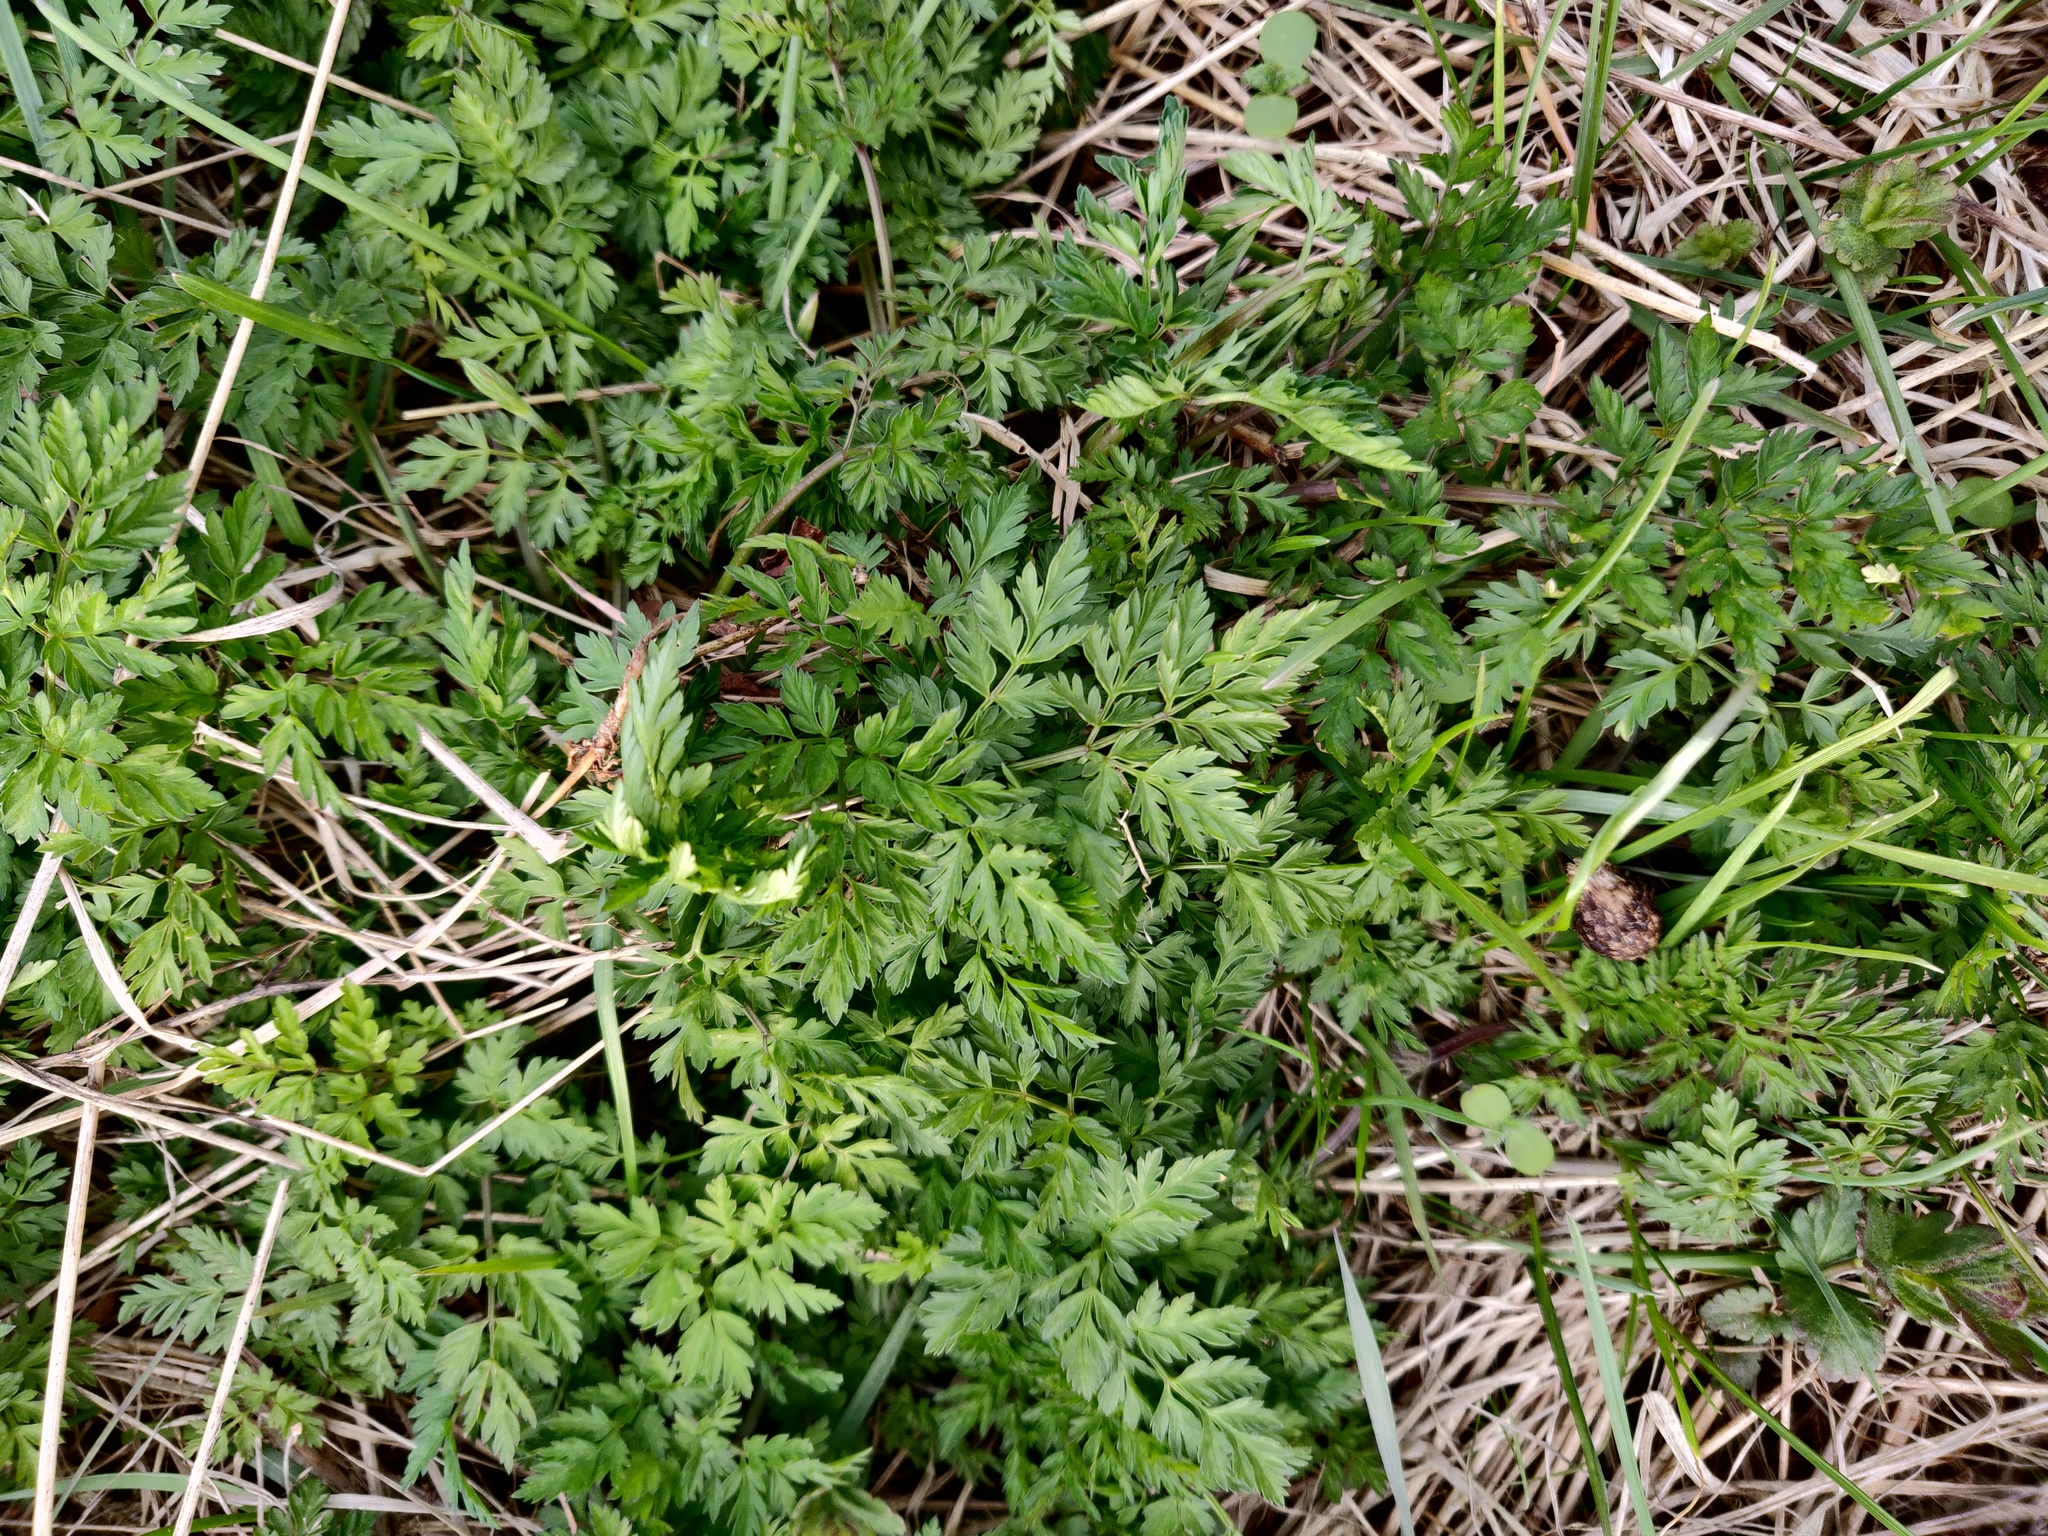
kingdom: Plantae
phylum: Tracheophyta
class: Magnoliopsida
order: Apiales
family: Apiaceae
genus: Anthriscus
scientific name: Anthriscus sylvestris
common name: Cow parsley
